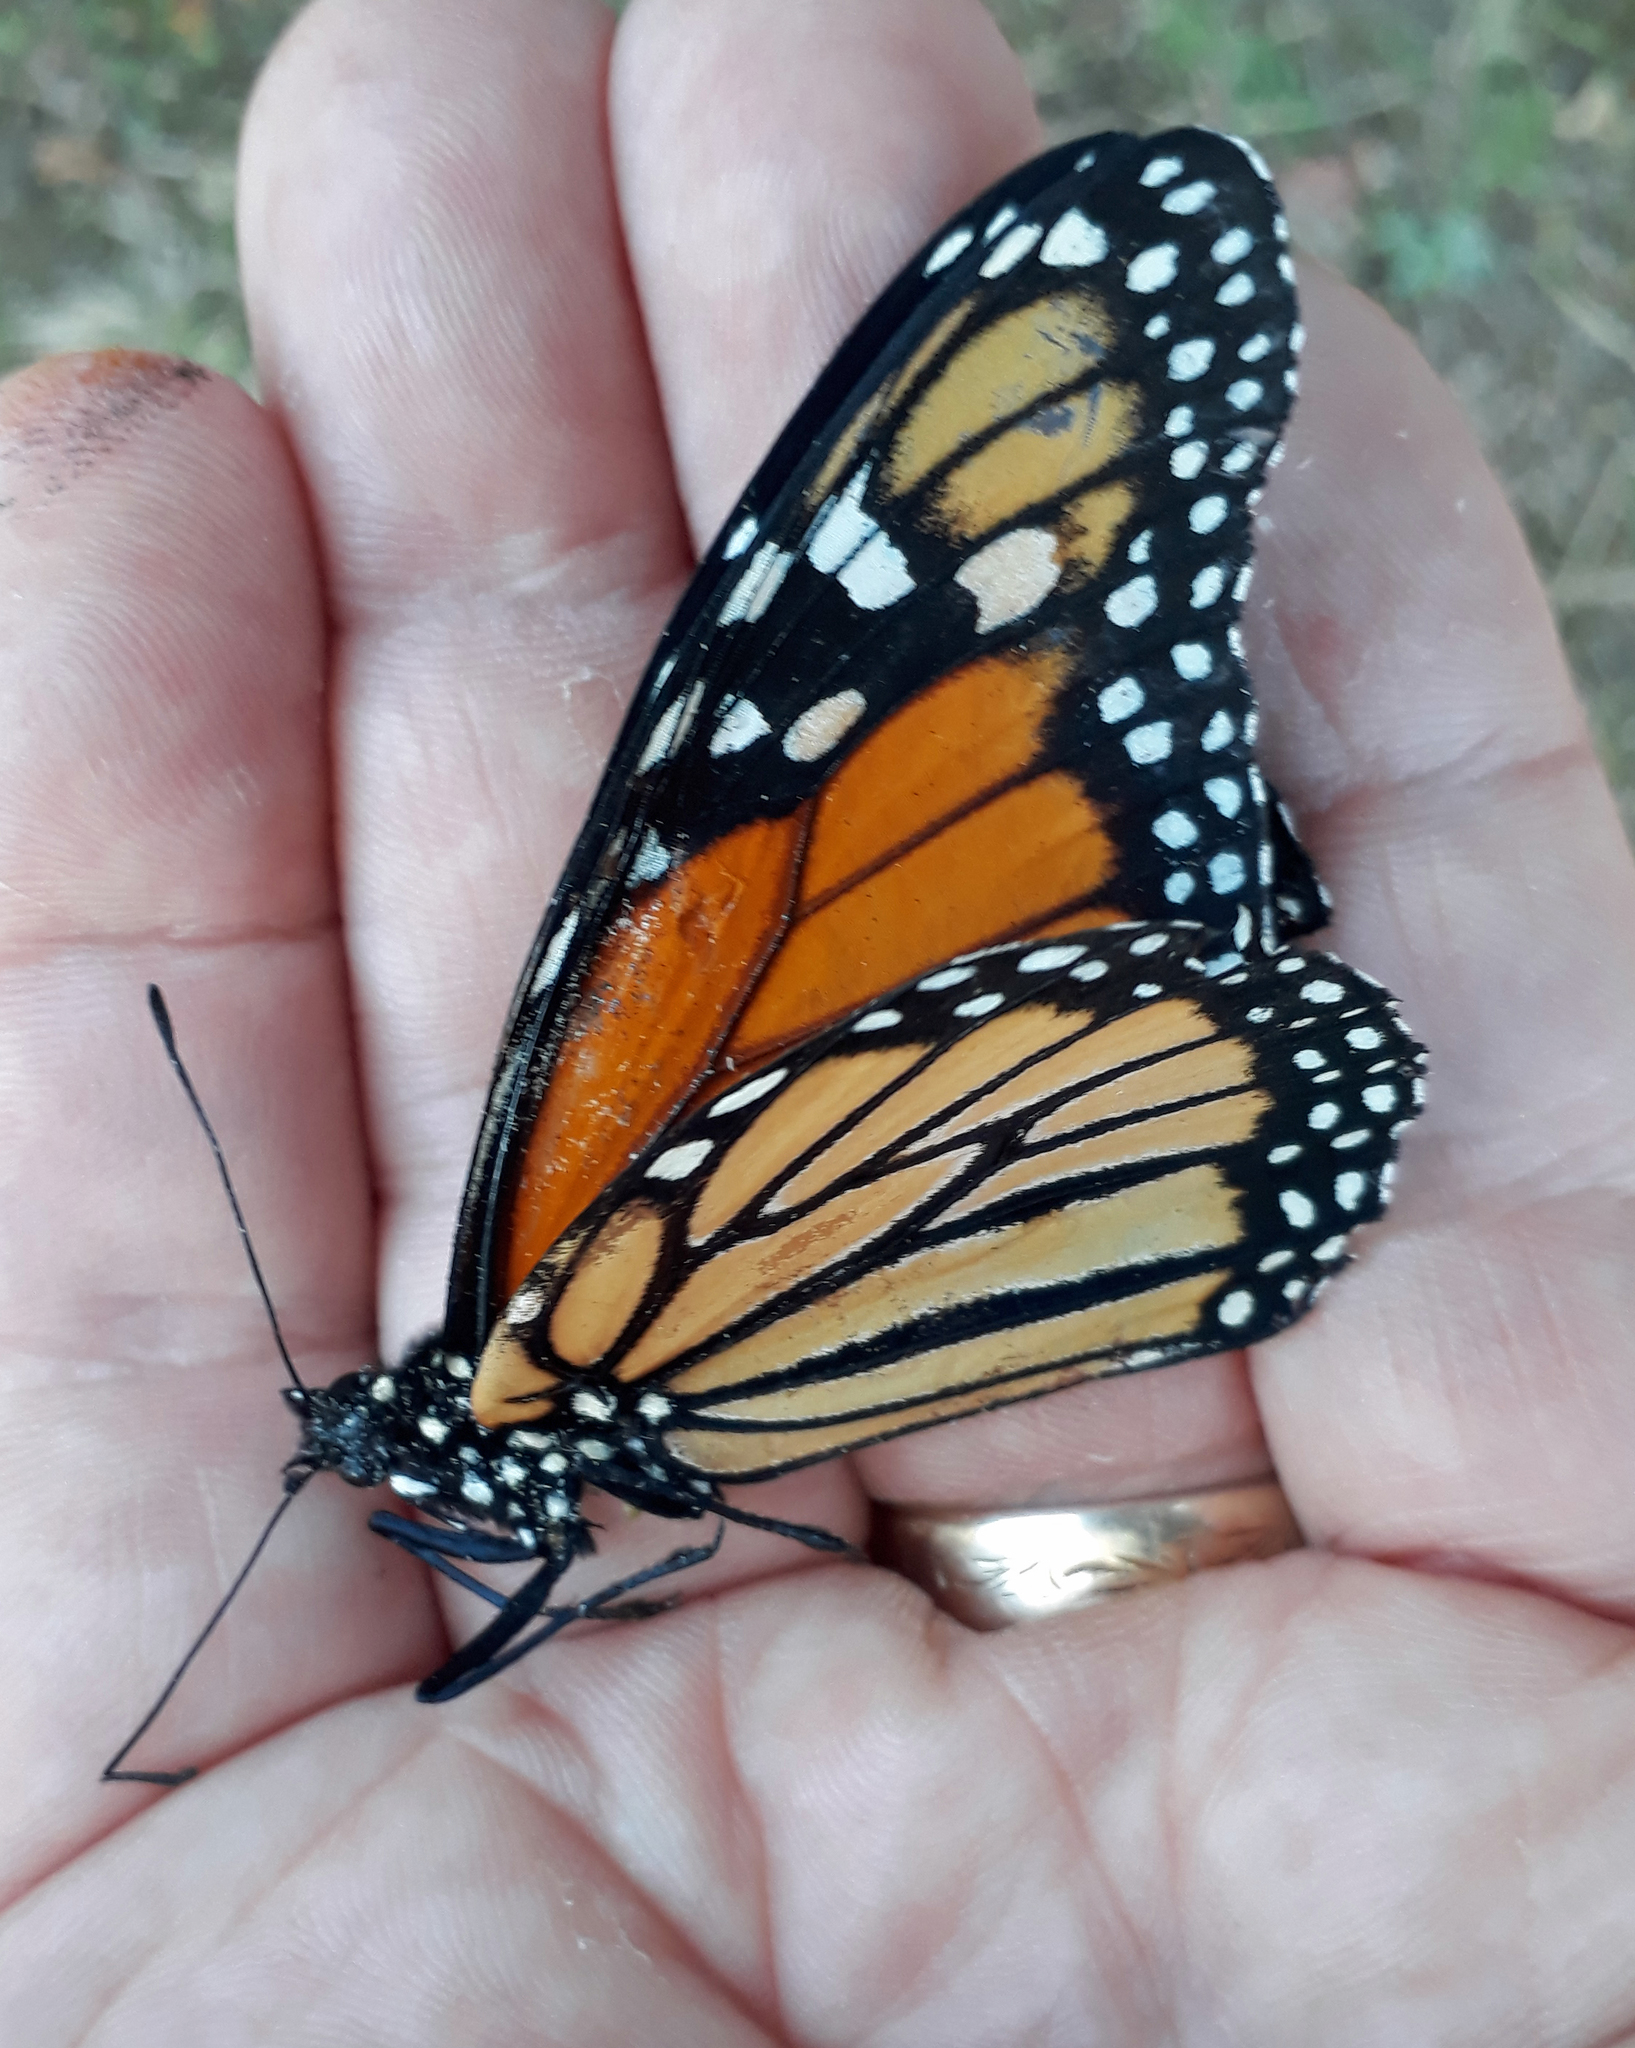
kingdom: Animalia
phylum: Arthropoda
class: Insecta
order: Lepidoptera
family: Nymphalidae
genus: Danaus
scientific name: Danaus plexippus
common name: Monarch
